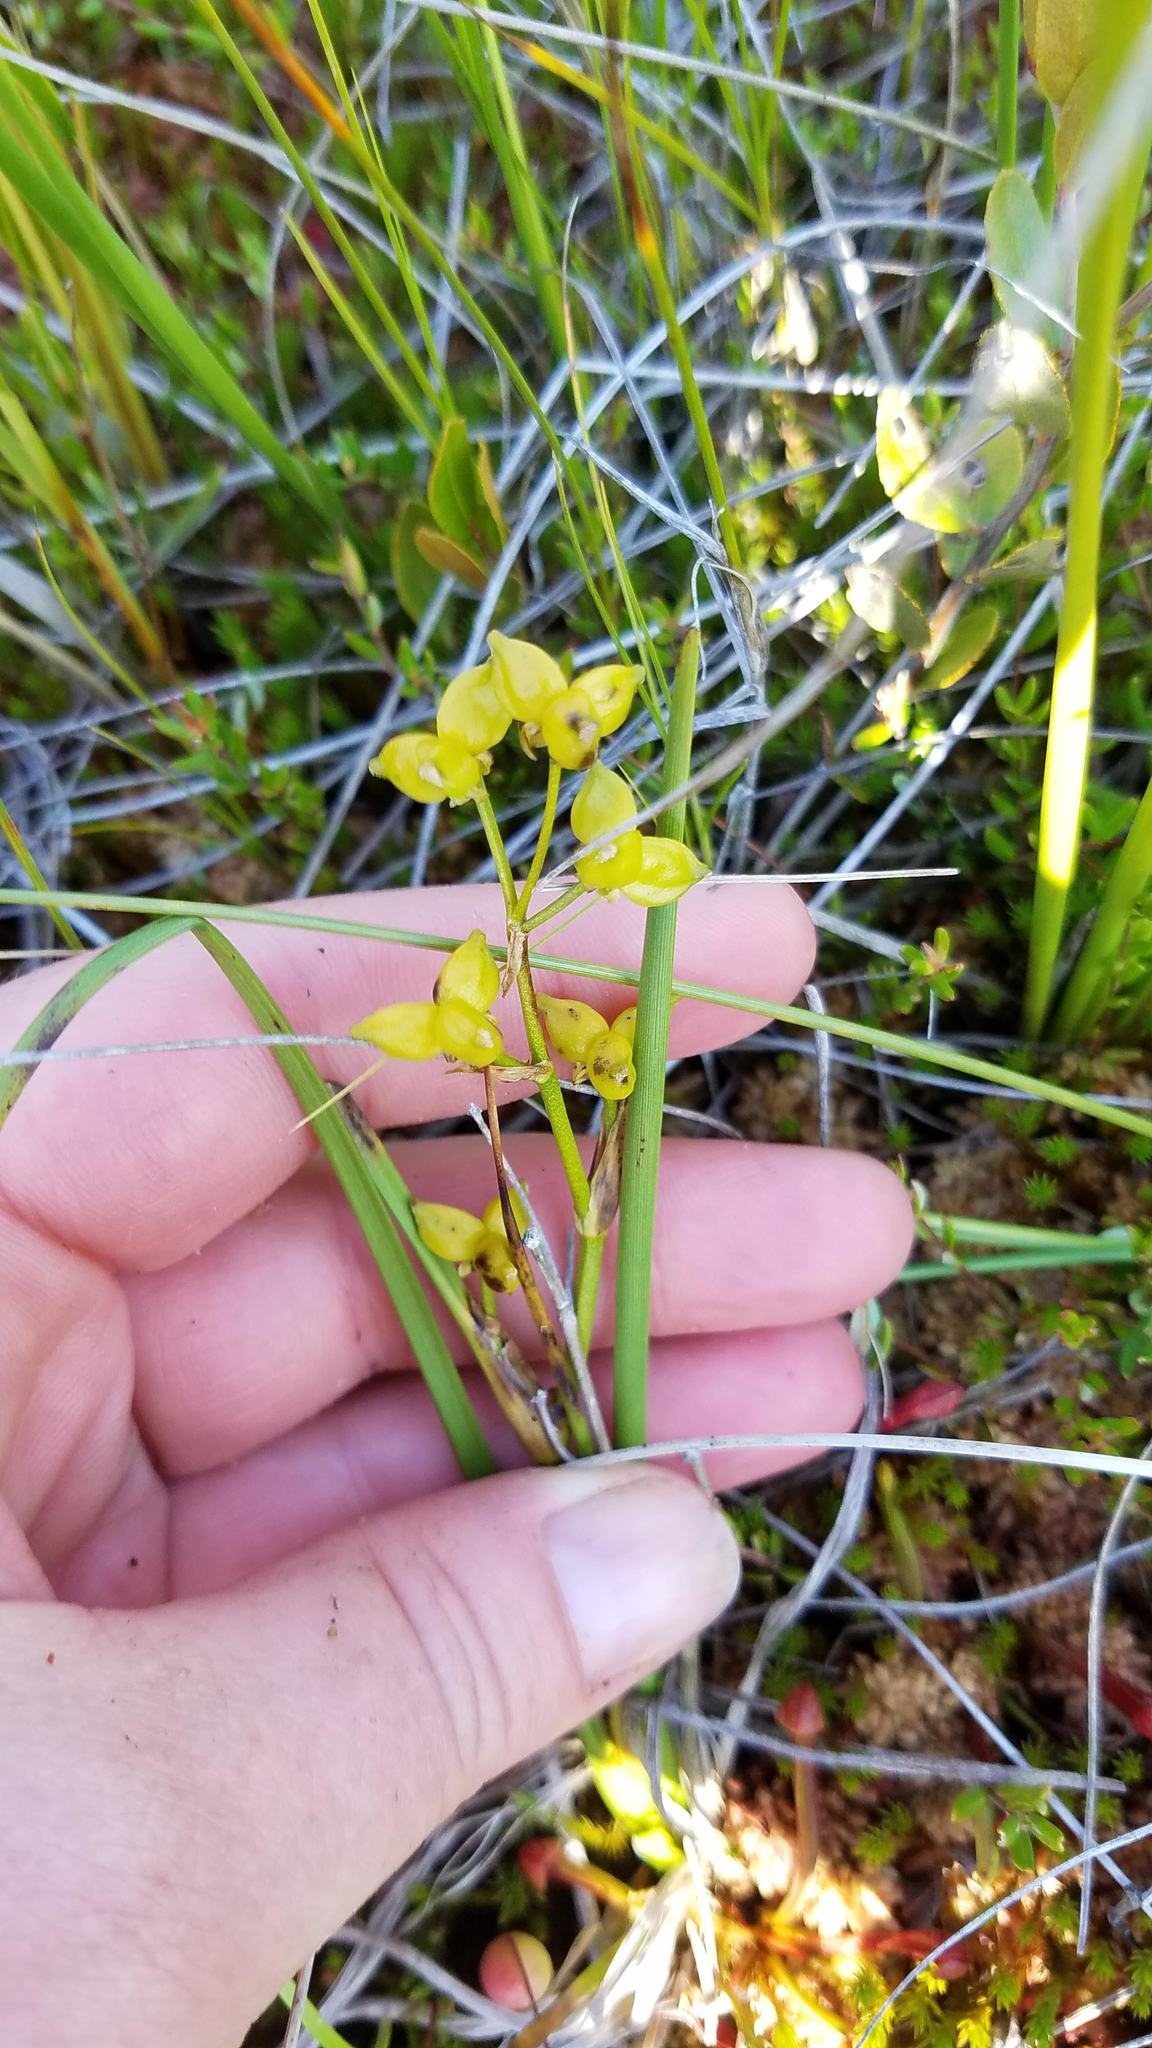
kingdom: Plantae
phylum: Tracheophyta
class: Liliopsida
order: Alismatales
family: Scheuchzeriaceae
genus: Scheuchzeria
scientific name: Scheuchzeria palustris
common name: Rannoch-rush
